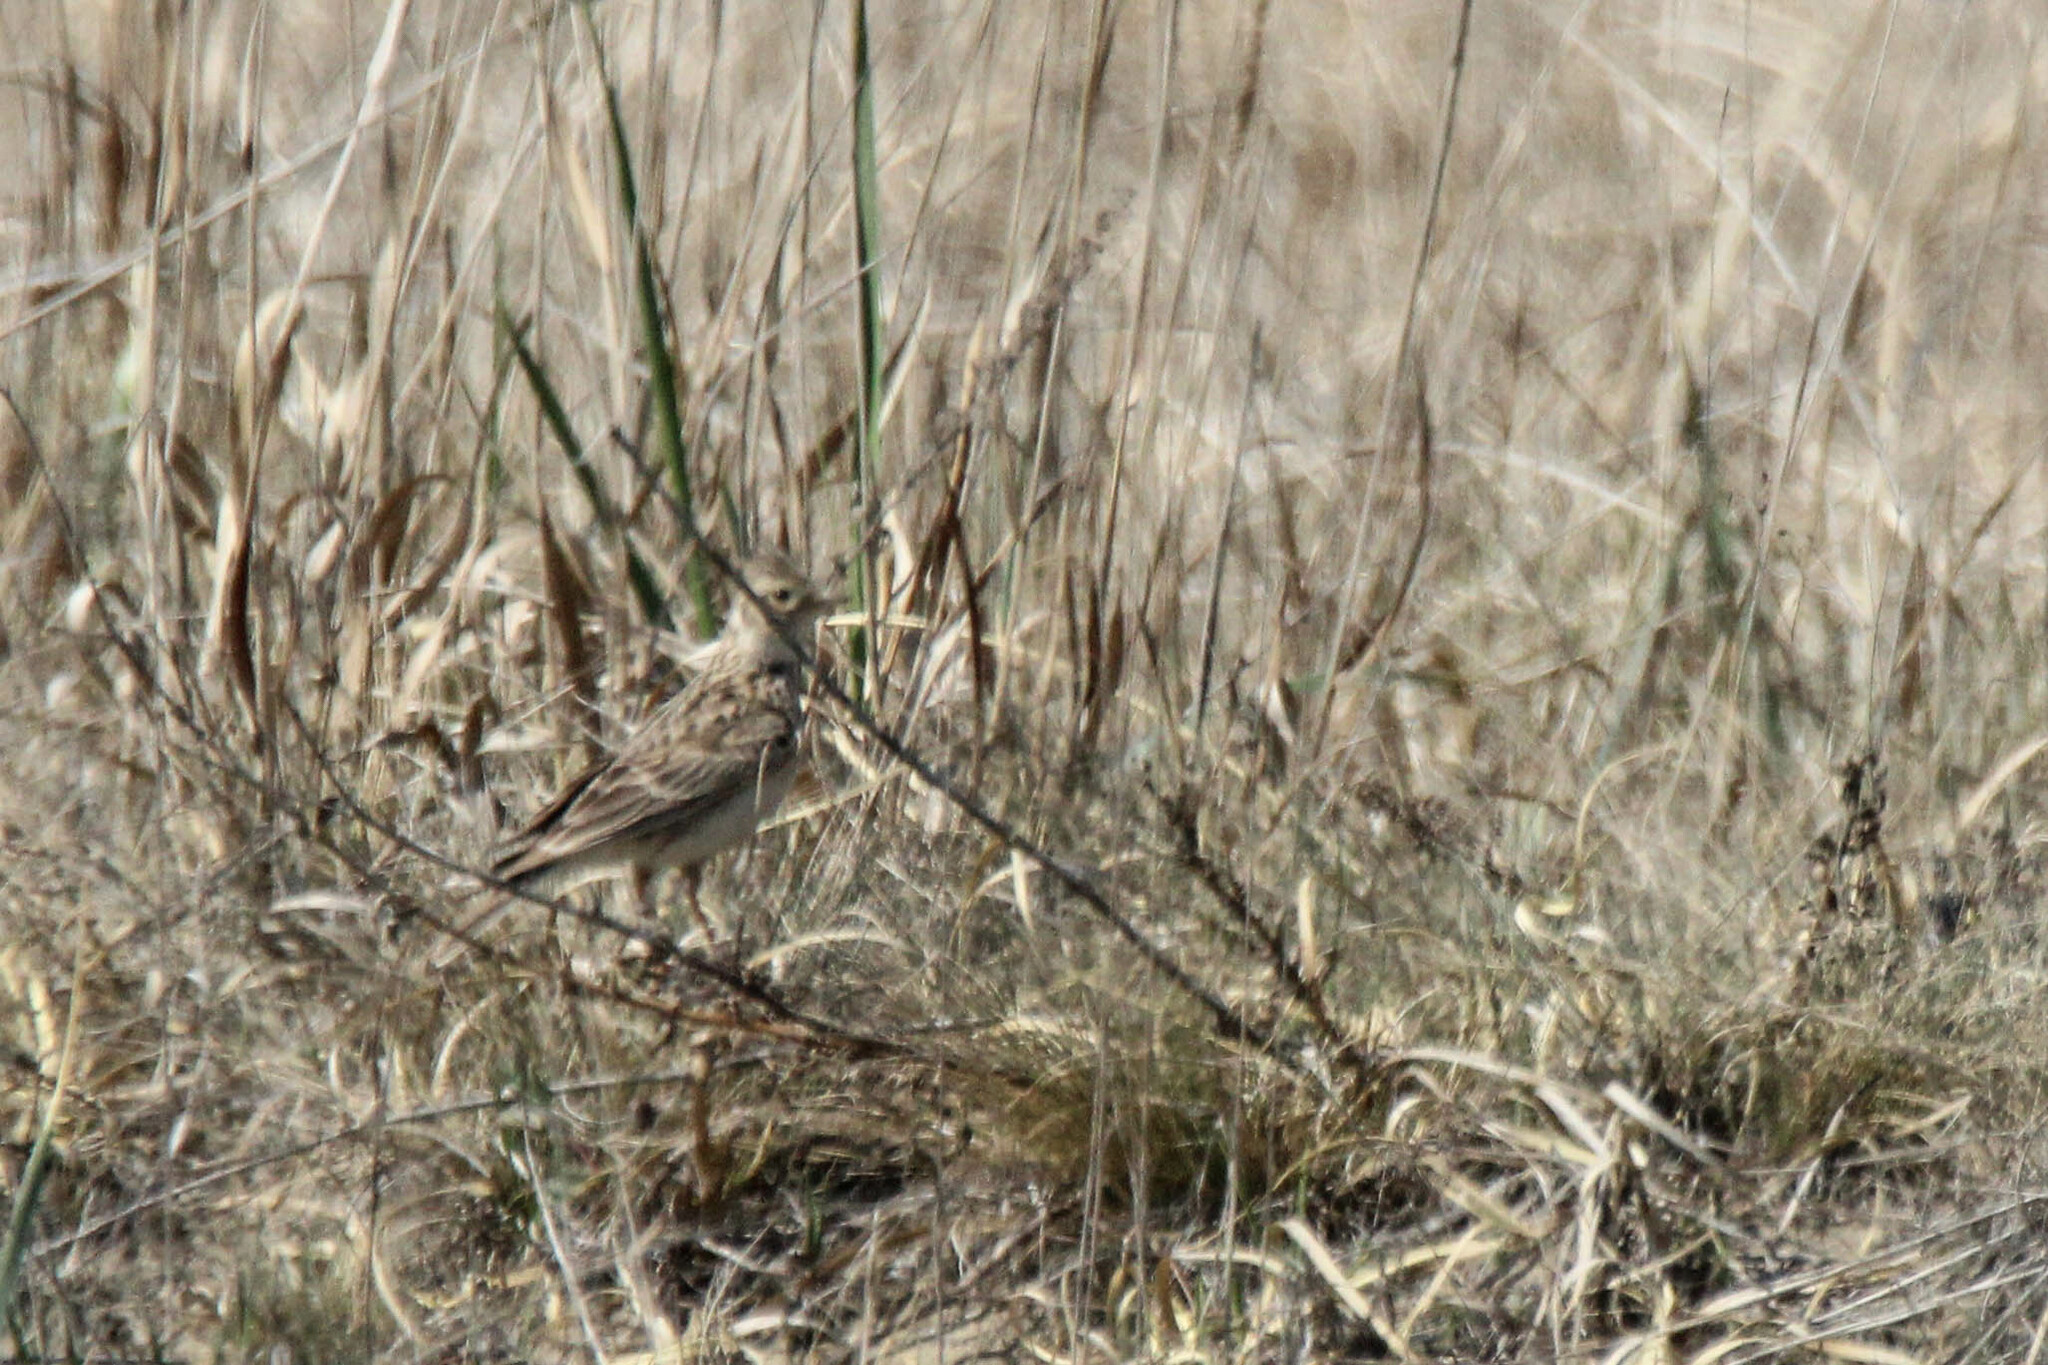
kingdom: Animalia
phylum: Chordata
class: Aves
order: Passeriformes
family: Alaudidae
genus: Alauda
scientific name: Alauda arvensis
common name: Eurasian skylark
